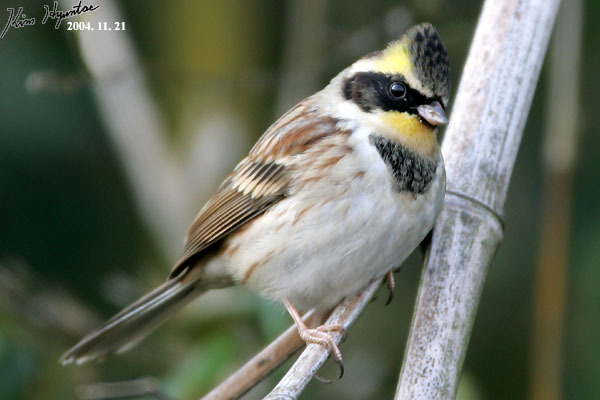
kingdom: Animalia
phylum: Chordata
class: Aves
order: Passeriformes
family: Emberizidae
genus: Emberiza
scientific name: Emberiza elegans
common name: Yellow-throated bunting
